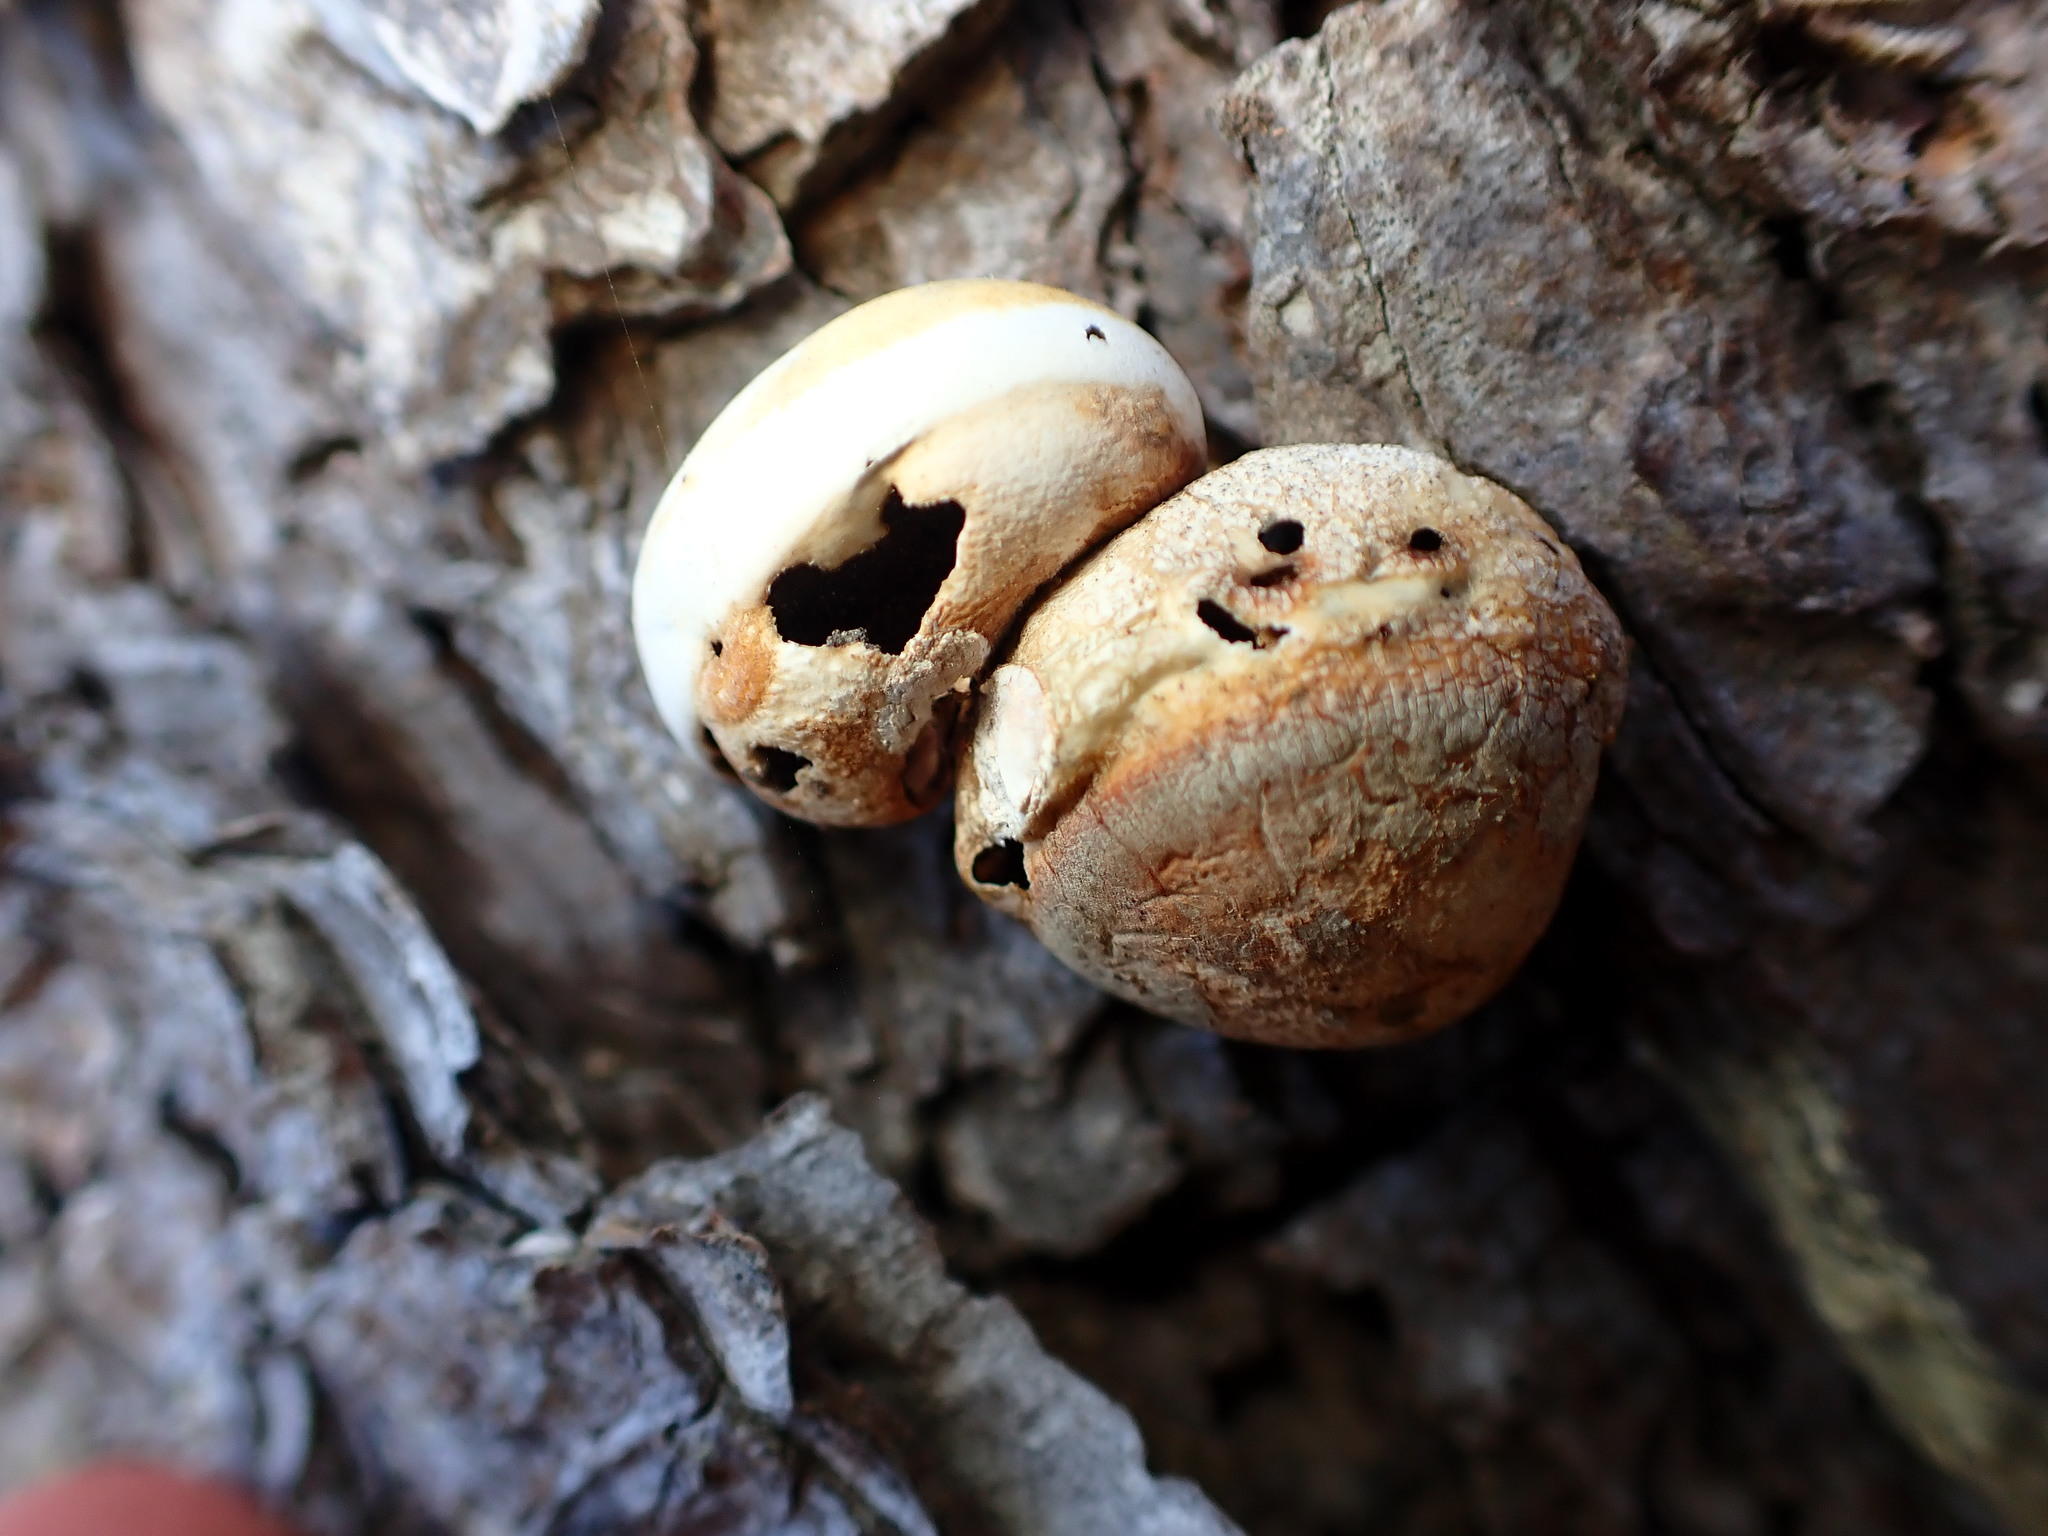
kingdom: Fungi
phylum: Basidiomycota
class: Agaricomycetes
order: Polyporales
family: Polyporaceae
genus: Cryptoporus
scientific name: Cryptoporus volvatus
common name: Veiled polypore
